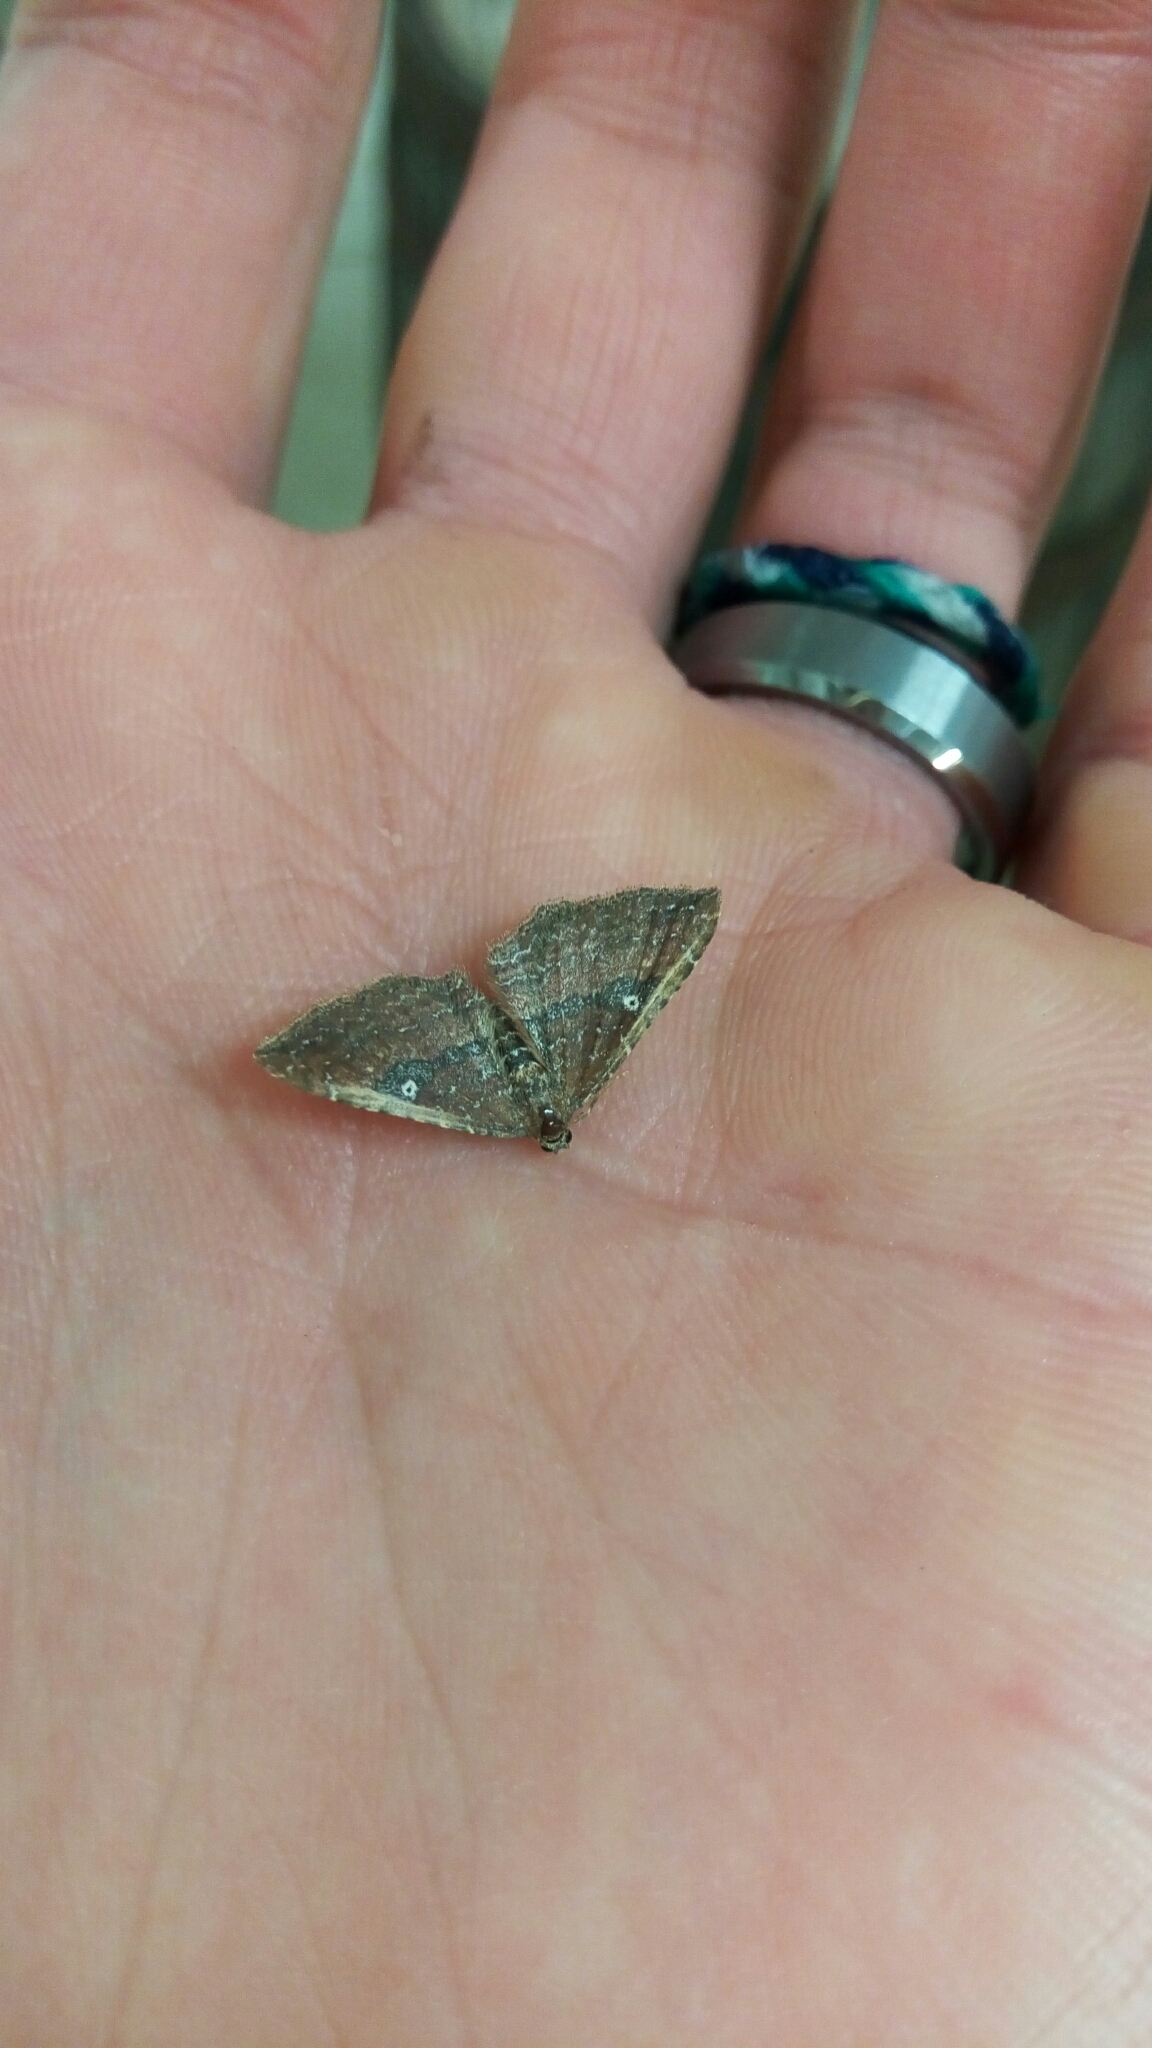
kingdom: Animalia
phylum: Arthropoda
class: Insecta
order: Lepidoptera
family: Geometridae
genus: Orthonama
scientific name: Orthonama obstipata
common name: The gem
